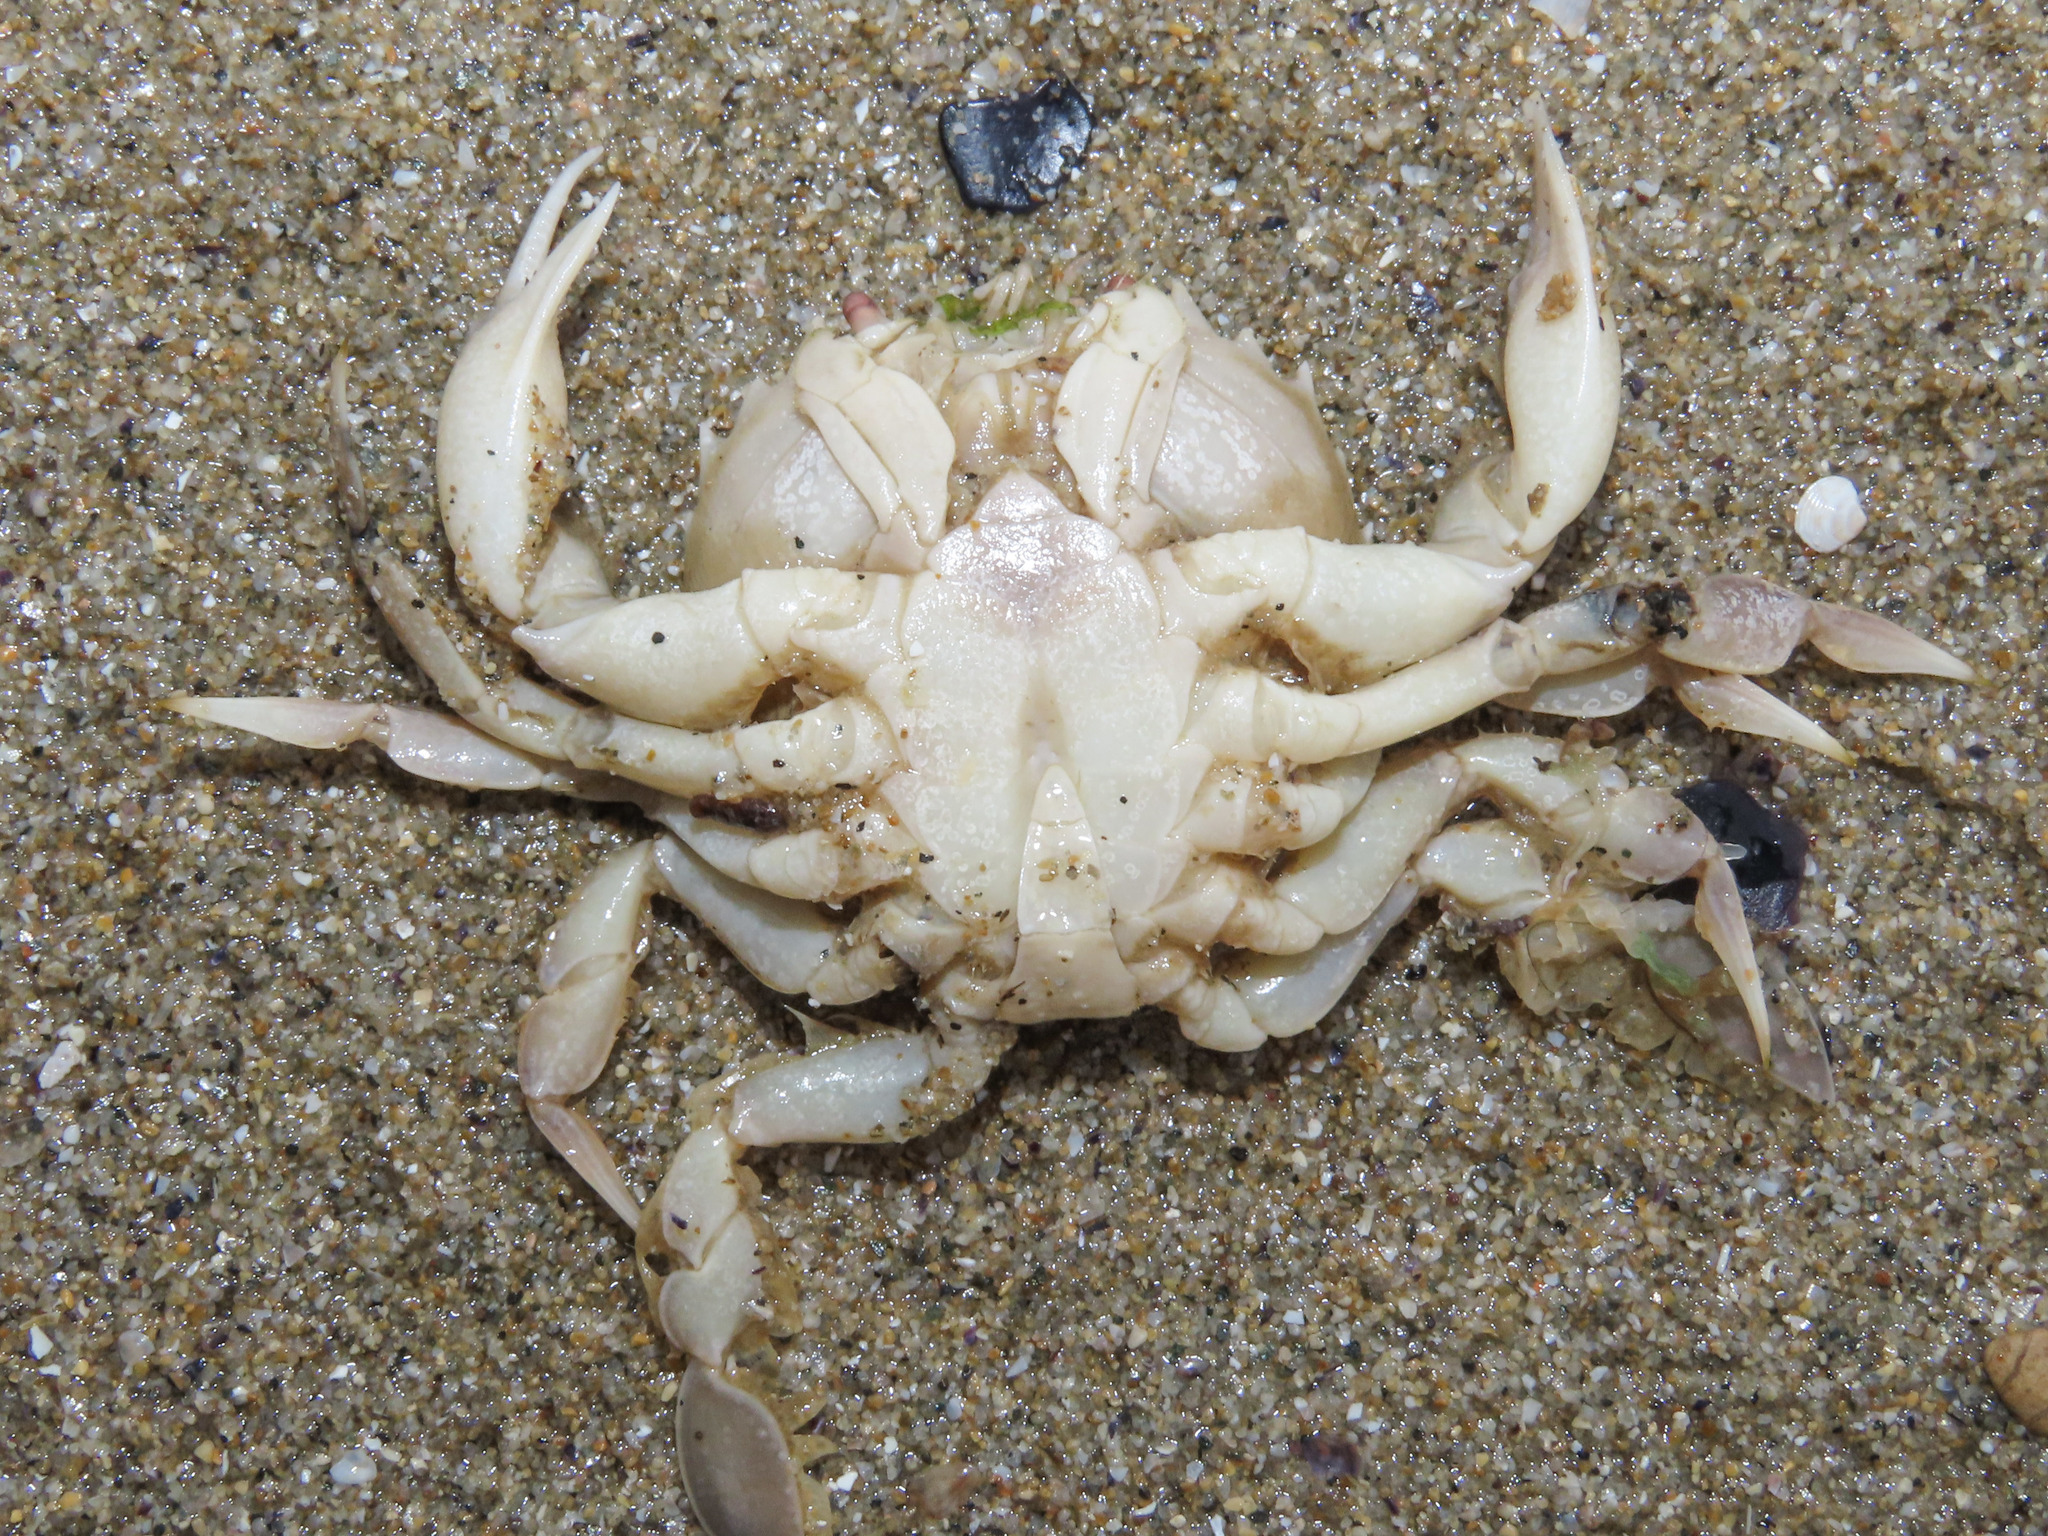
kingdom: Animalia
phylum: Arthropoda
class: Malacostraca
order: Decapoda
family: Carcinidae
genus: Portumnus
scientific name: Portumnus latipes
